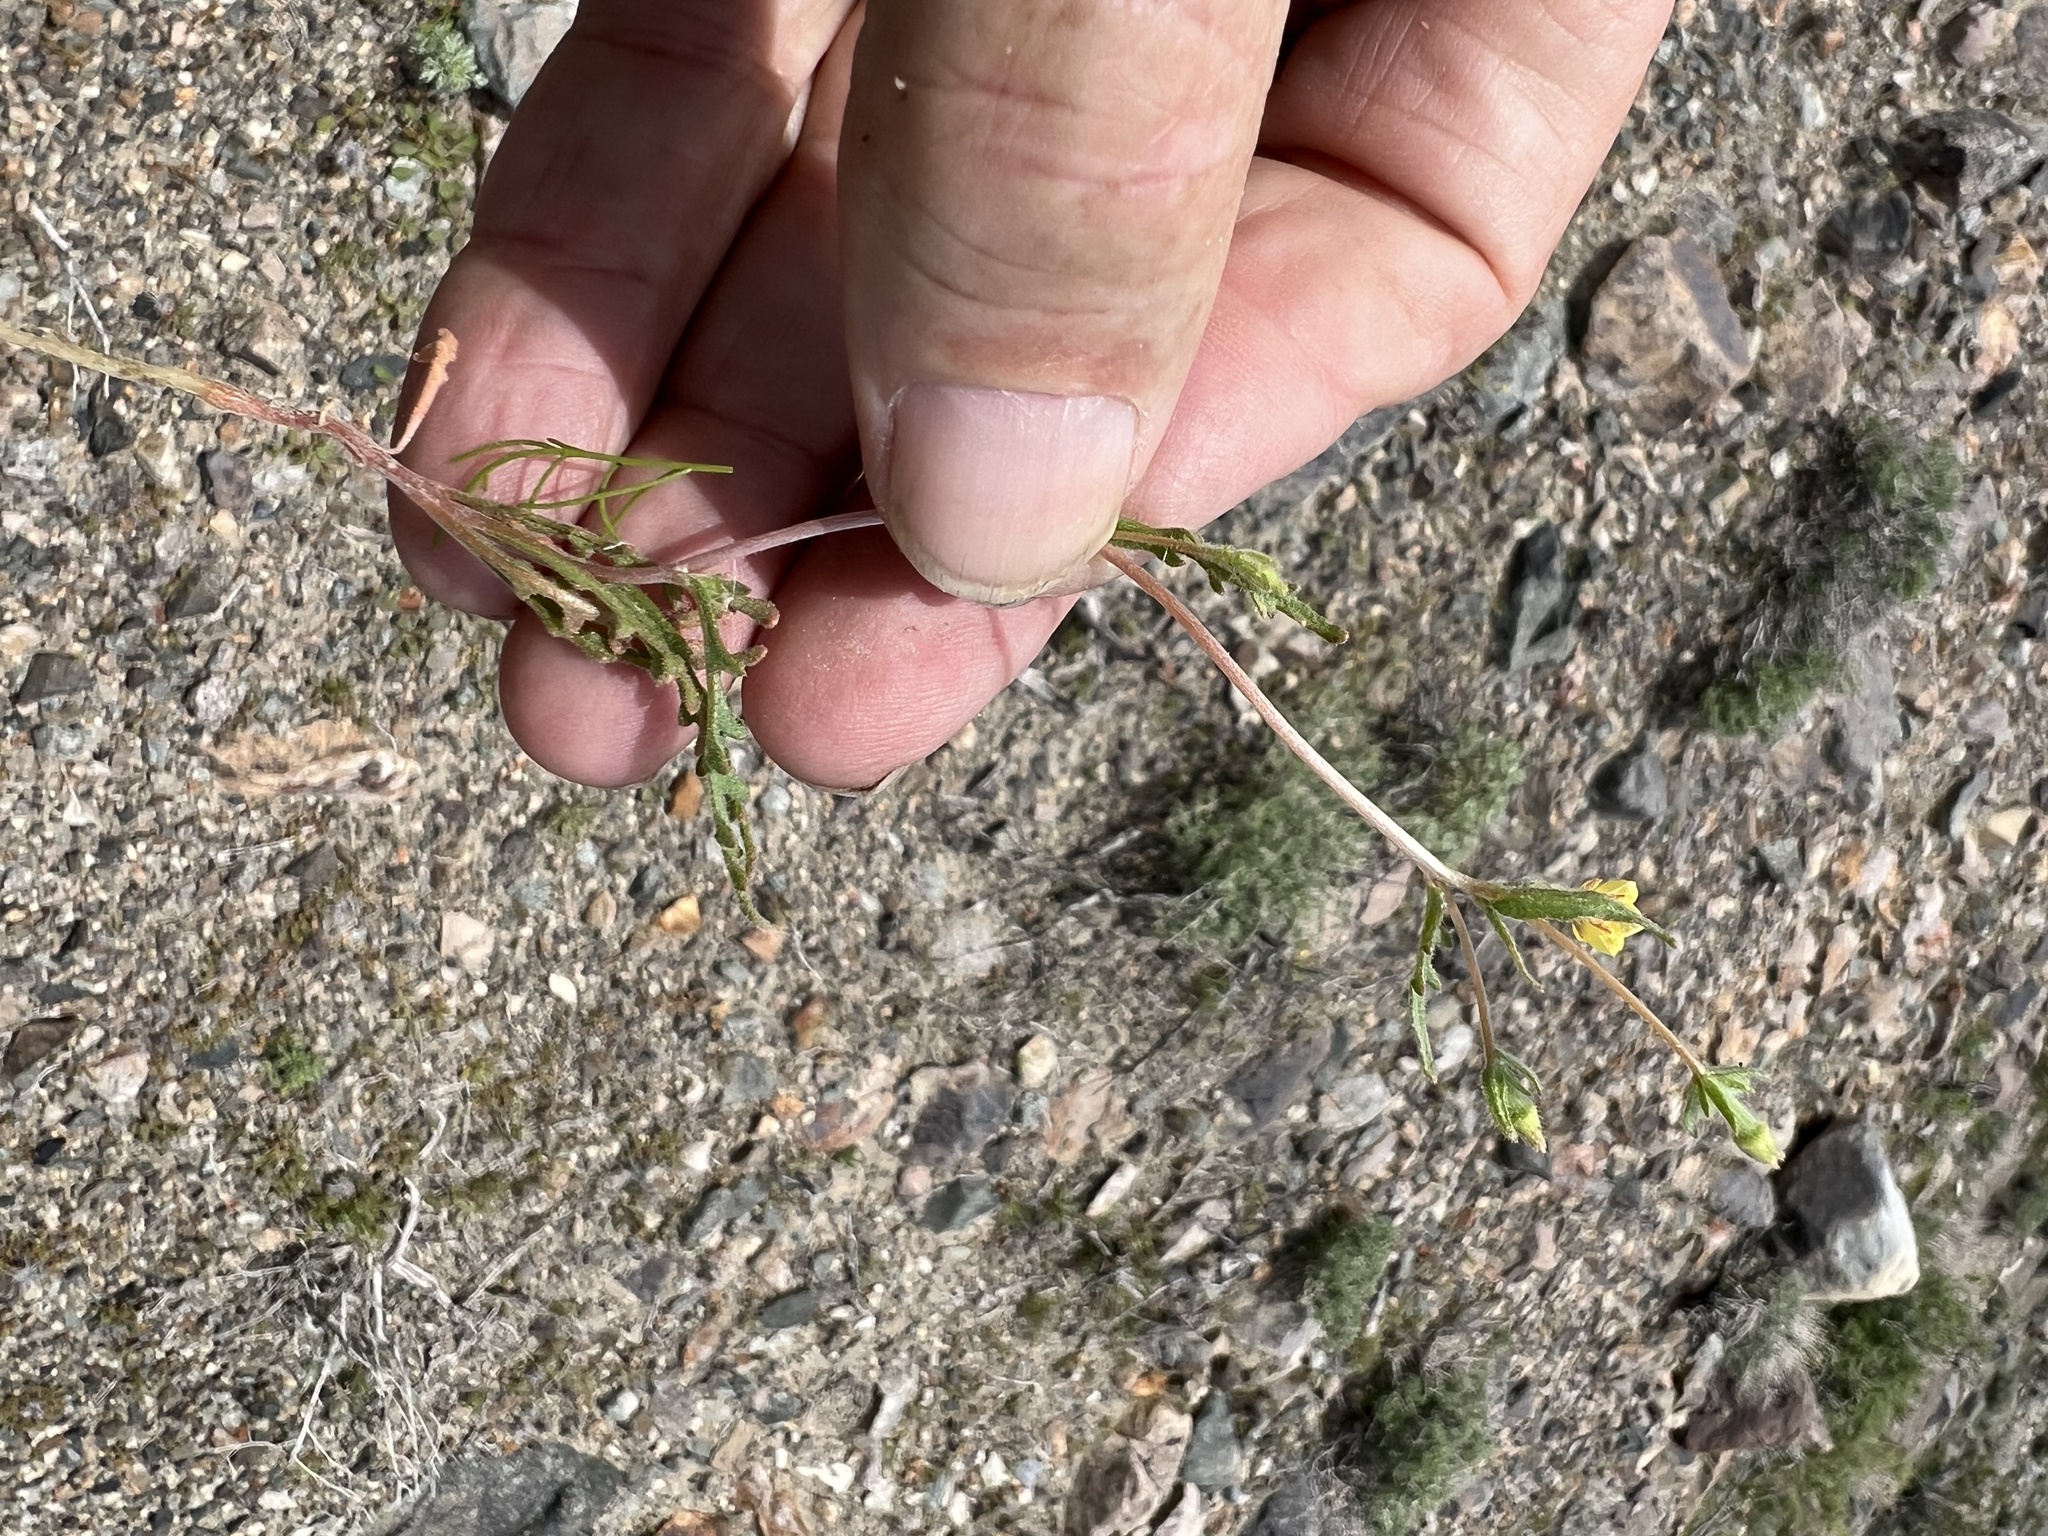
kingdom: Plantae
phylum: Tracheophyta
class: Magnoliopsida
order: Cornales
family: Loasaceae
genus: Mentzelia
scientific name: Mentzelia albicaulis
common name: White-stem blazingstar
